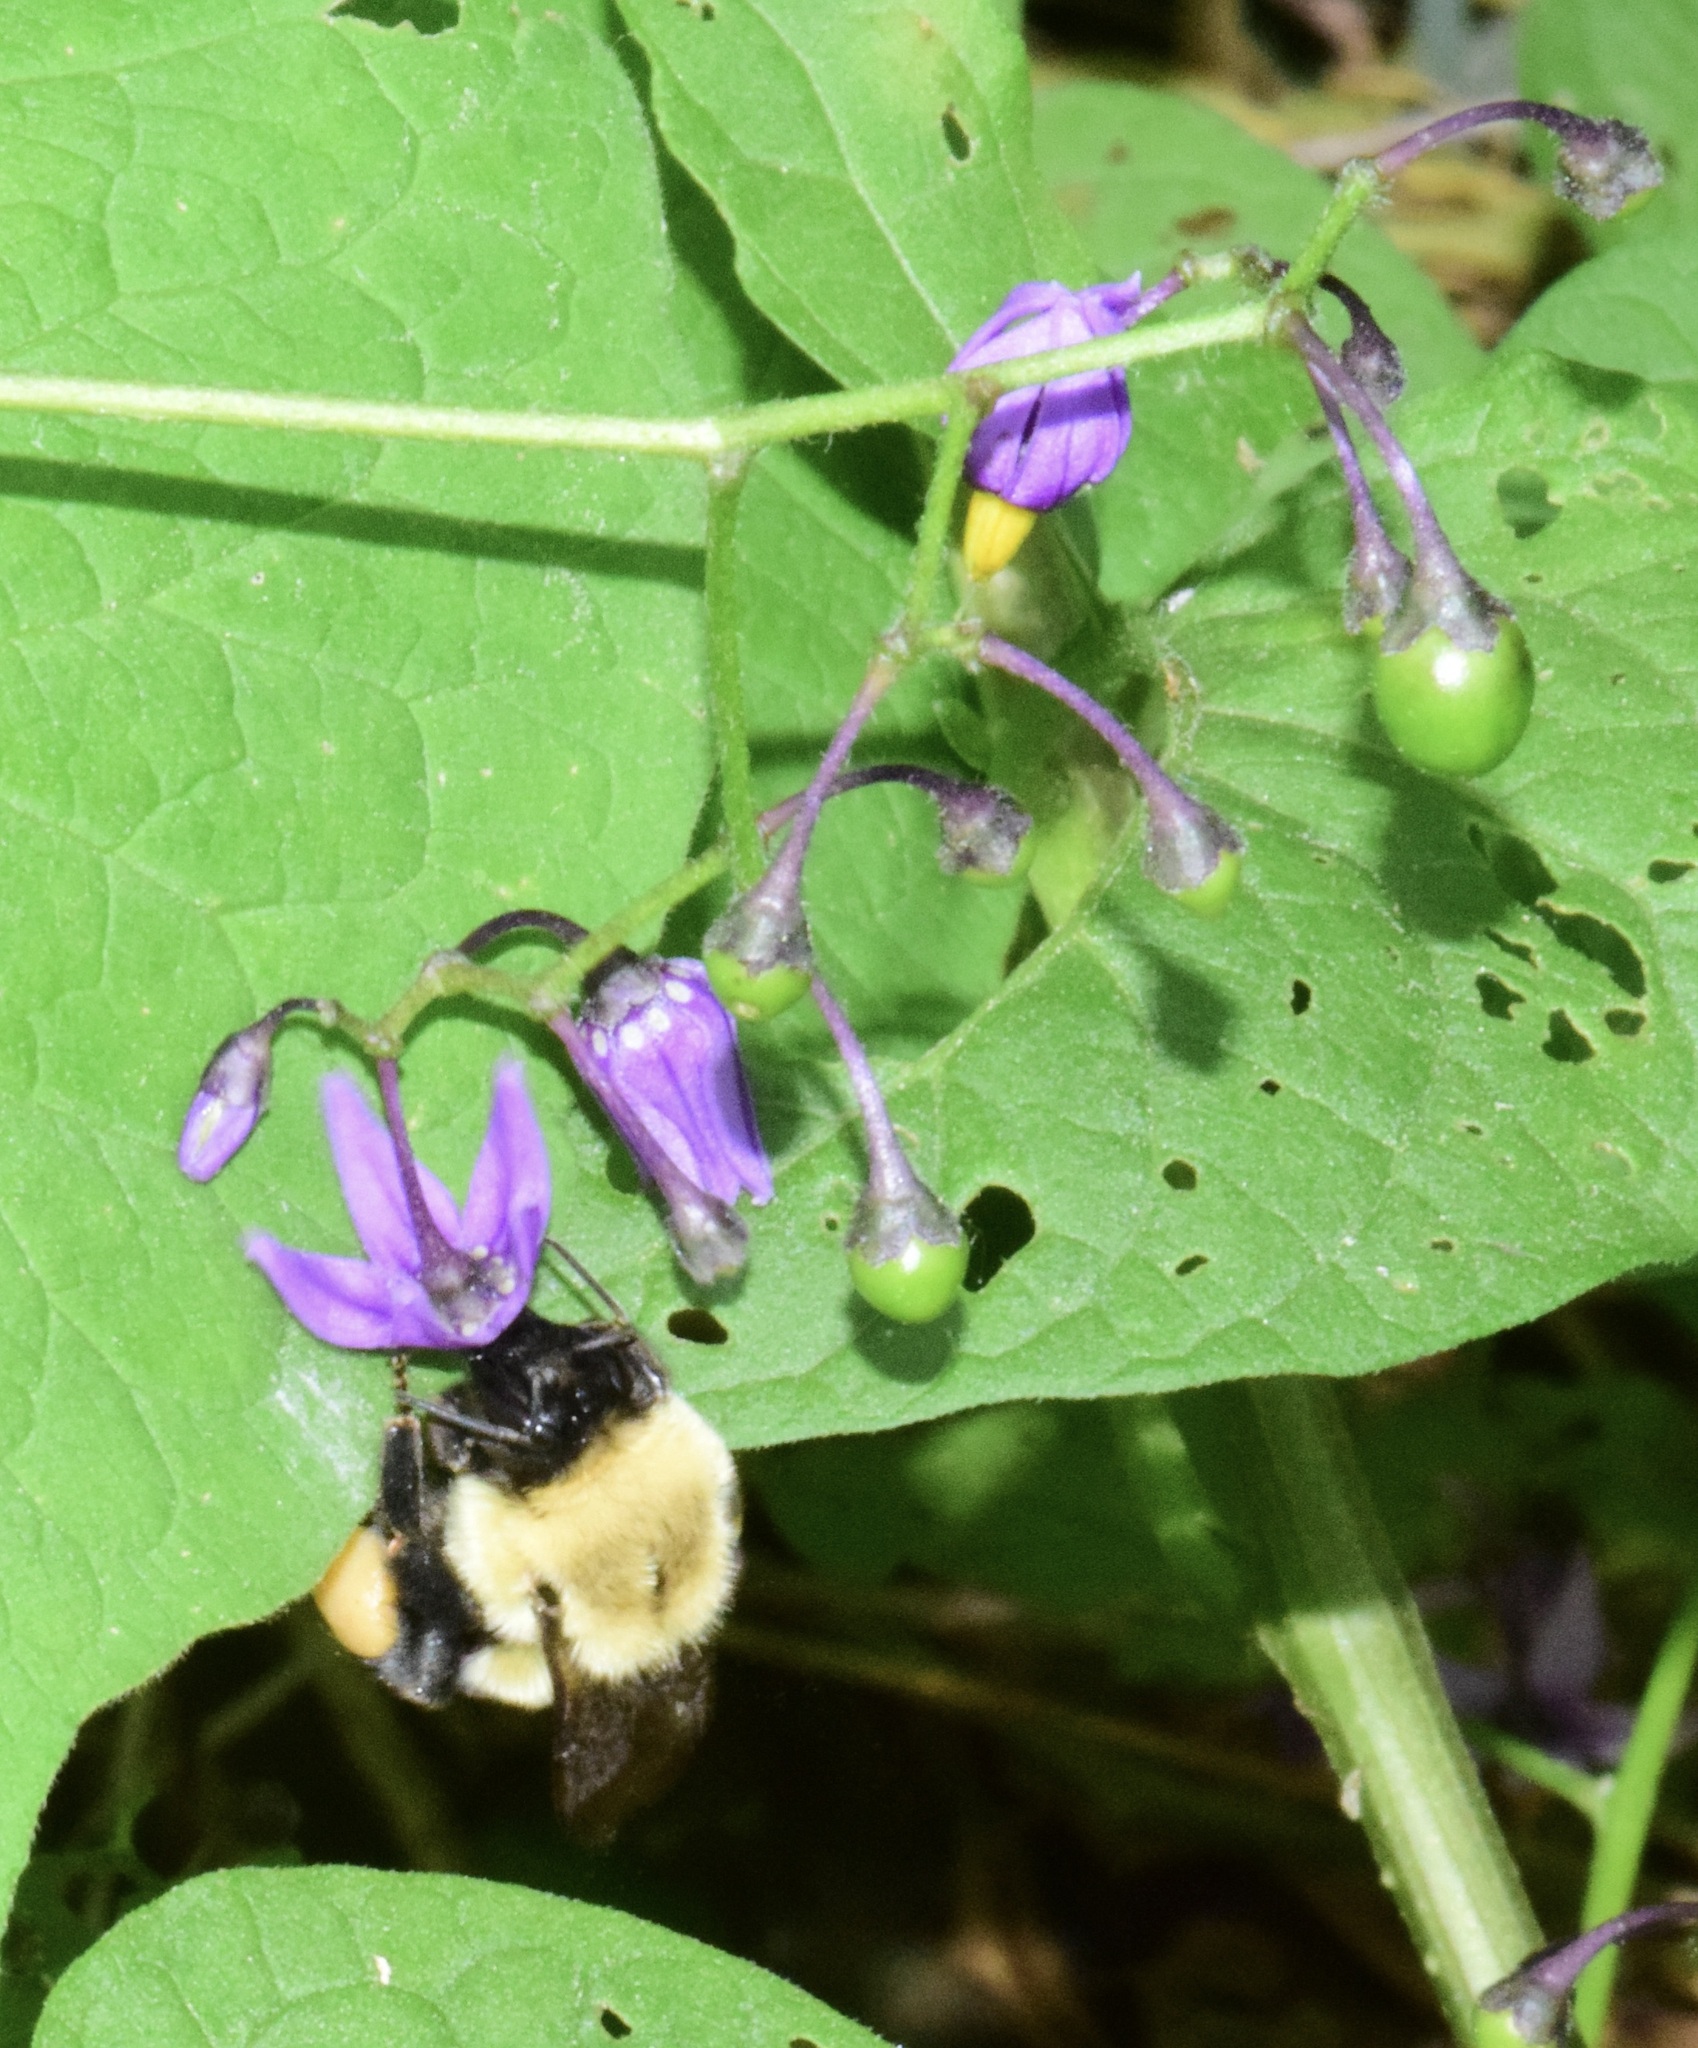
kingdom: Animalia
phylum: Arthropoda
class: Insecta
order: Hymenoptera
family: Apidae
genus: Bombus
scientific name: Bombus impatiens
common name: Common eastern bumble bee
